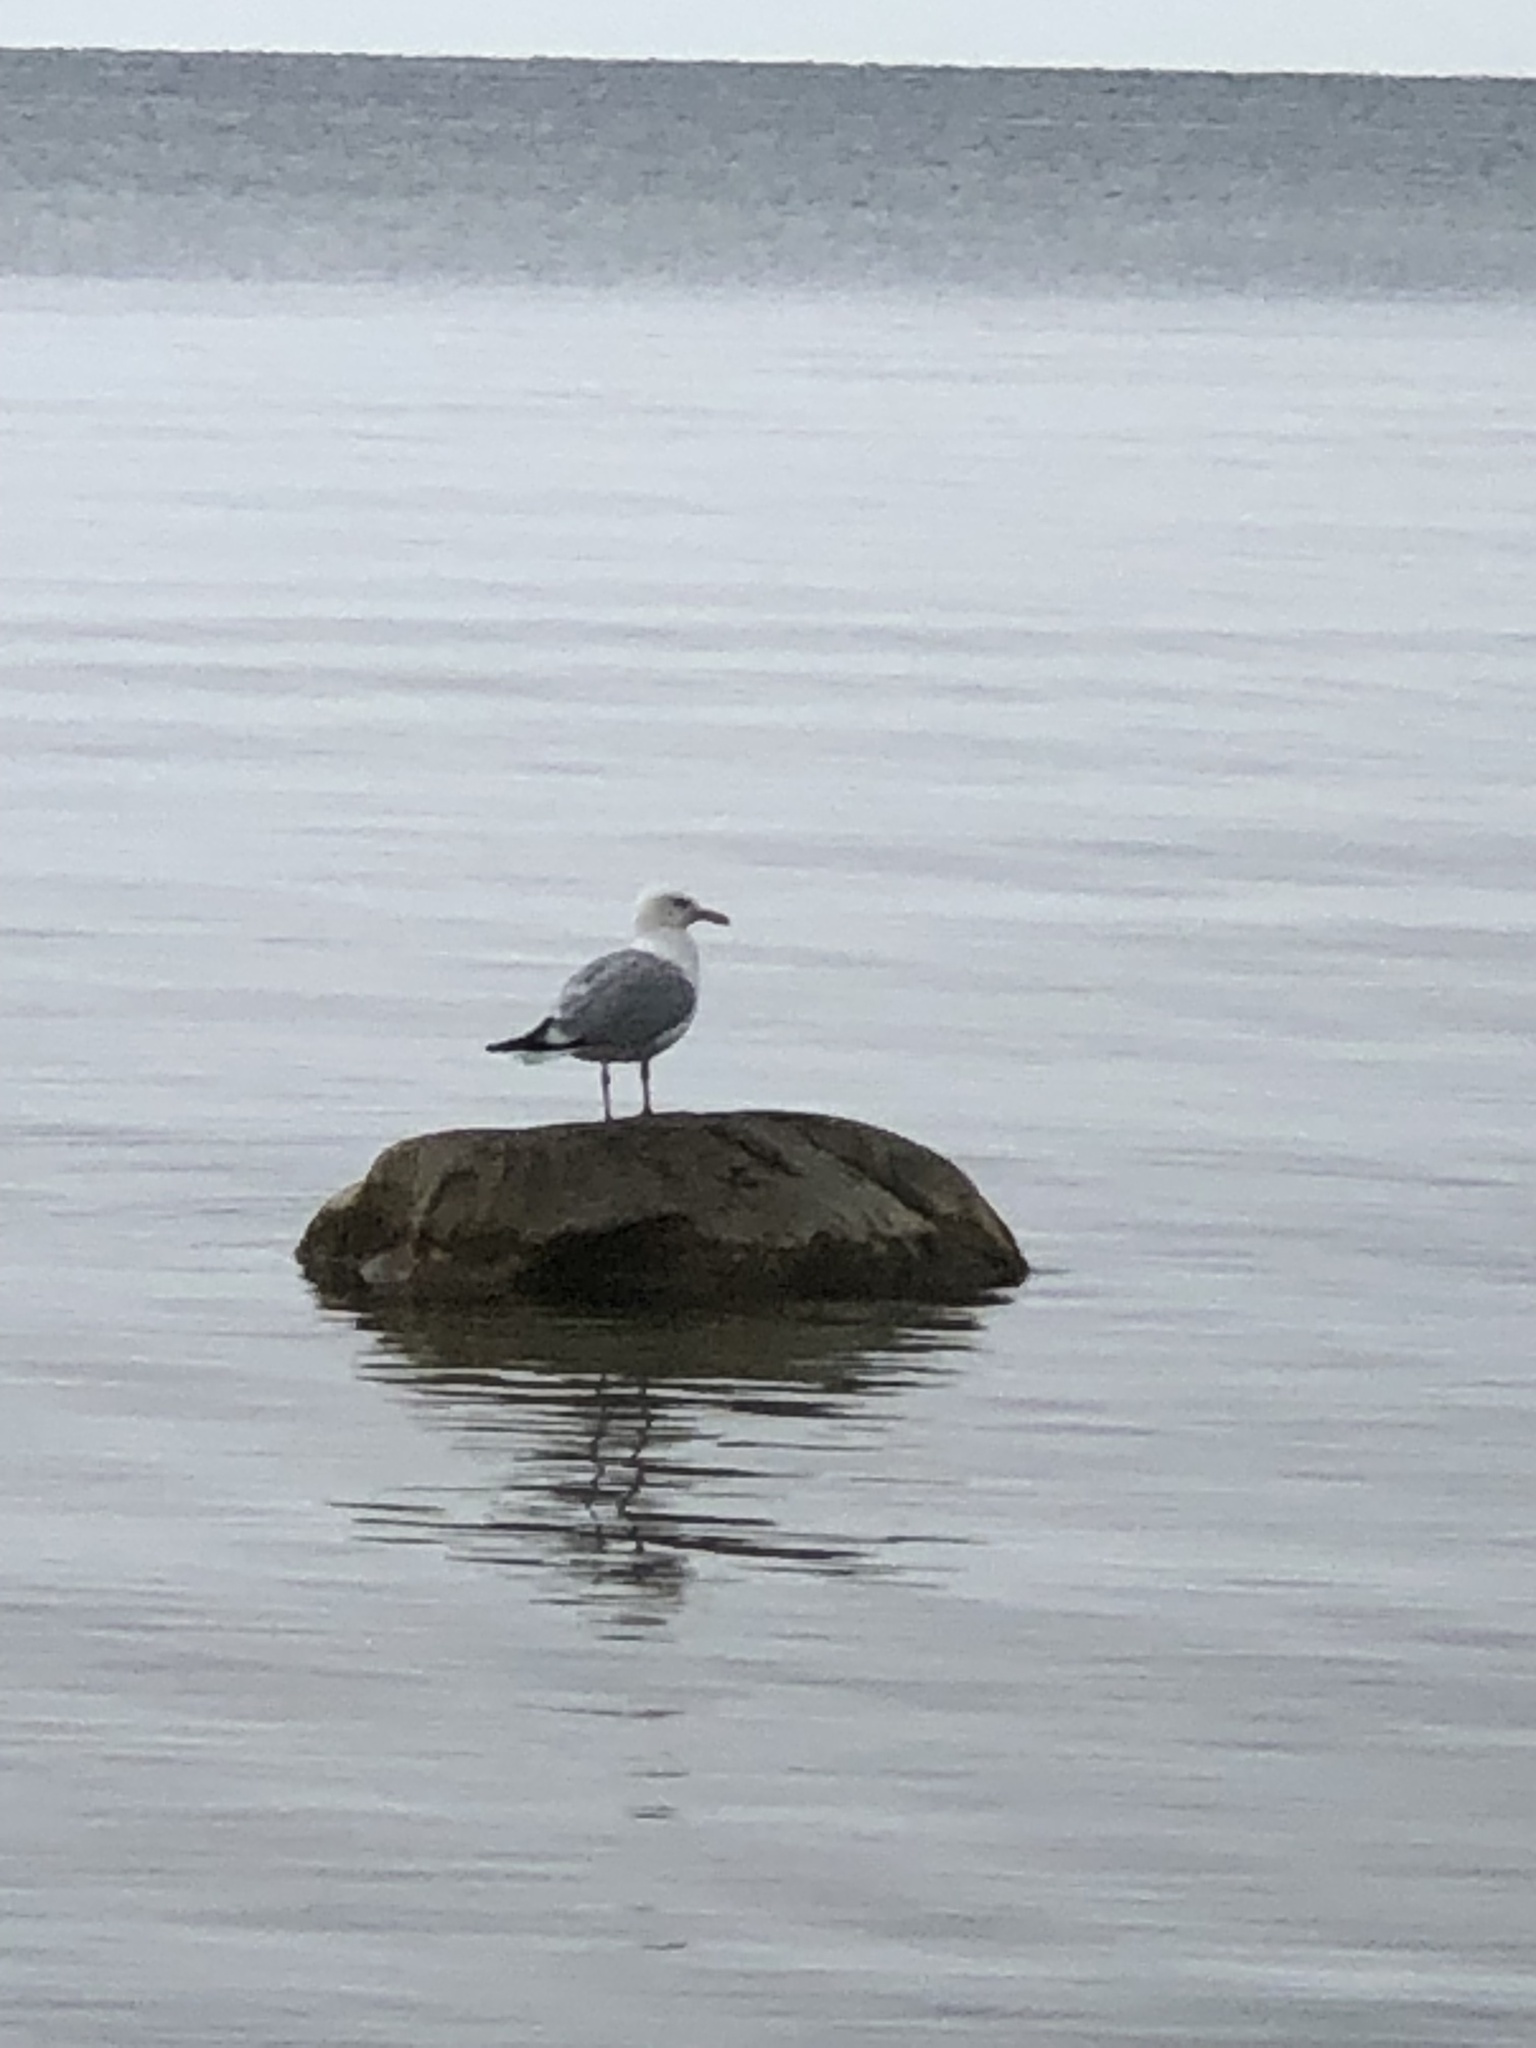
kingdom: Animalia
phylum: Chordata
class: Aves
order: Charadriiformes
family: Laridae
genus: Larus
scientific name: Larus argentatus
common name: Herring gull
